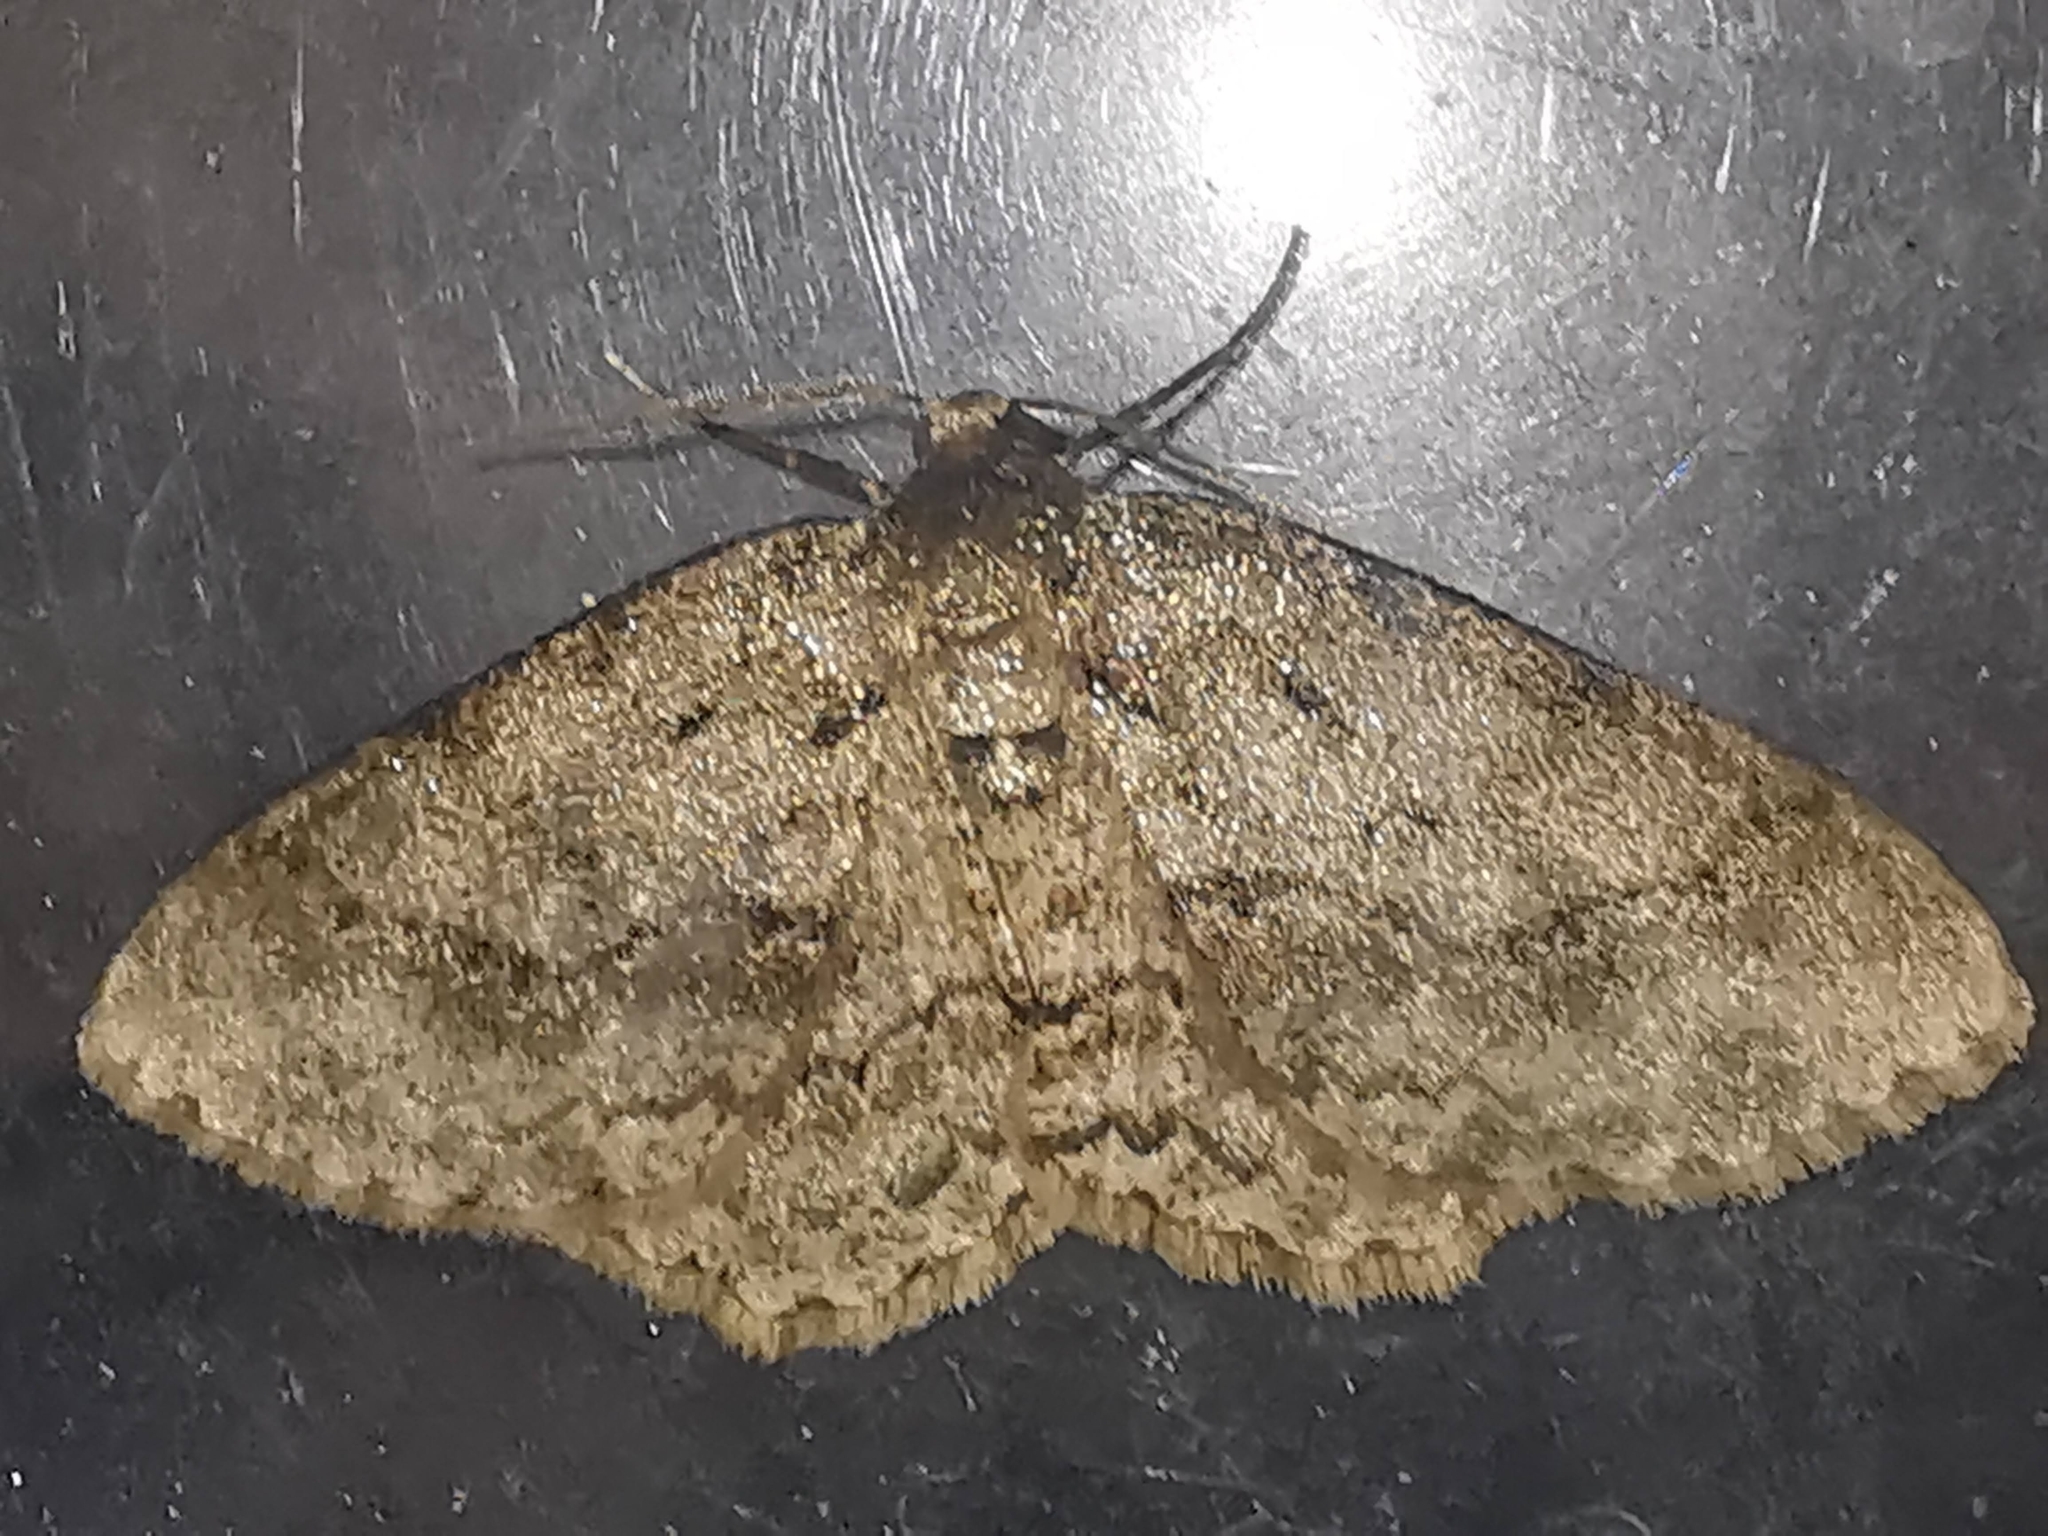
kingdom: Animalia
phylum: Arthropoda
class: Insecta
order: Lepidoptera
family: Geometridae
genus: Ectropis
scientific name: Ectropis crepuscularia
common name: Engrailed
